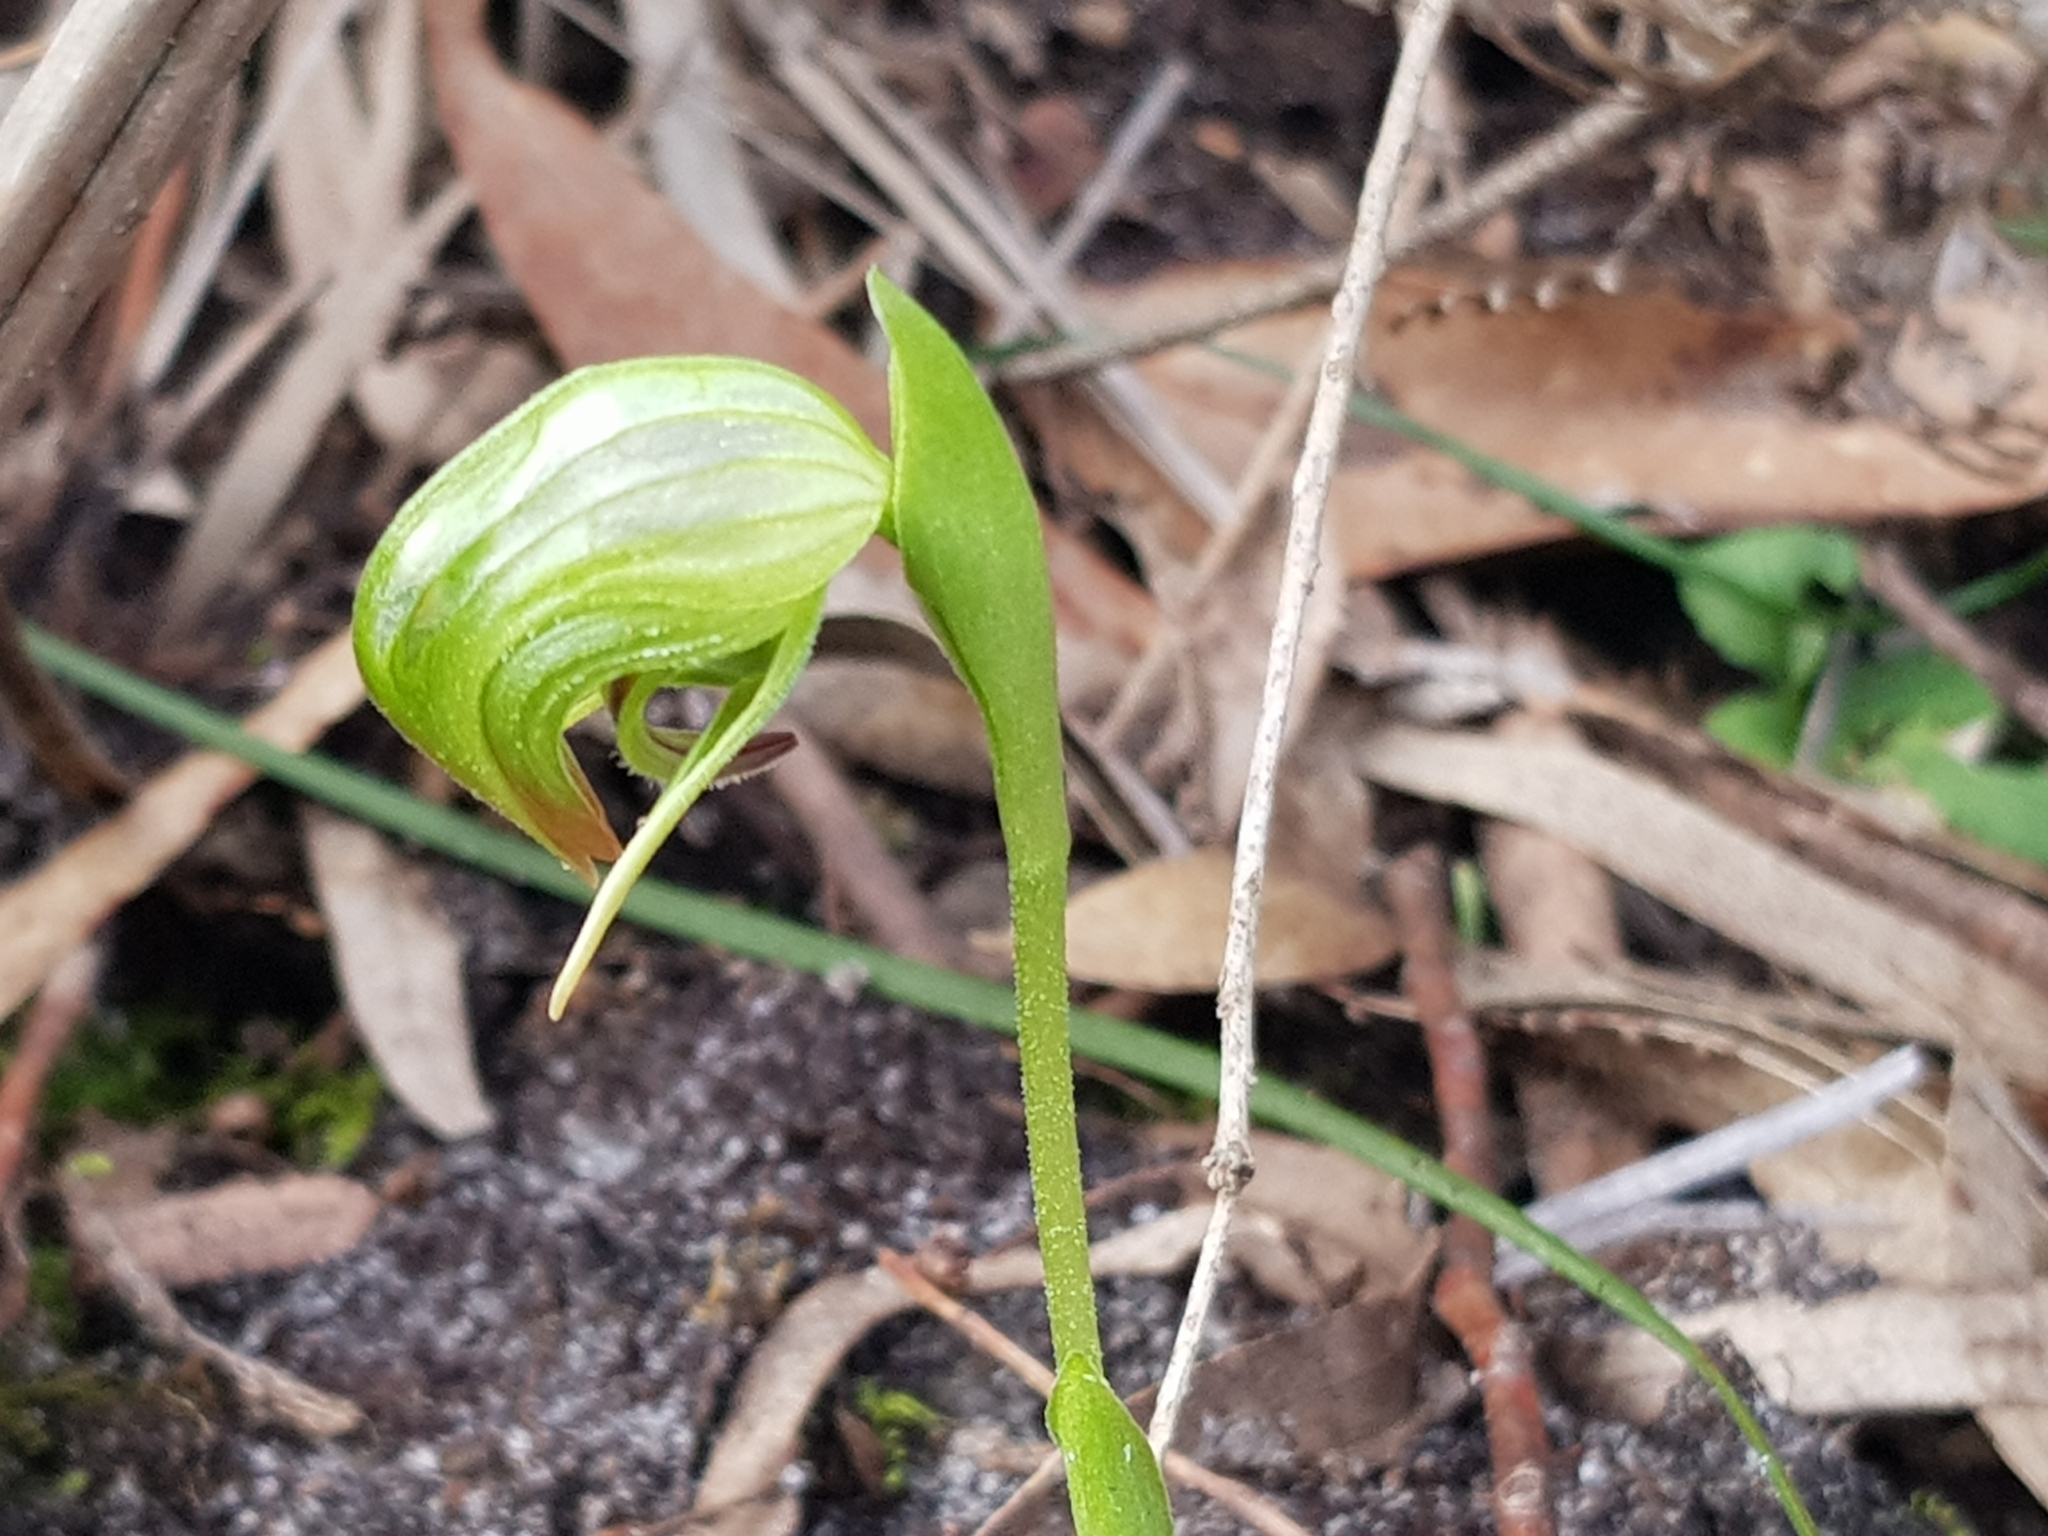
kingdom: Plantae
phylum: Tracheophyta
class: Liliopsida
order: Asparagales
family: Orchidaceae
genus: Pterostylis
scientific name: Pterostylis nutans
